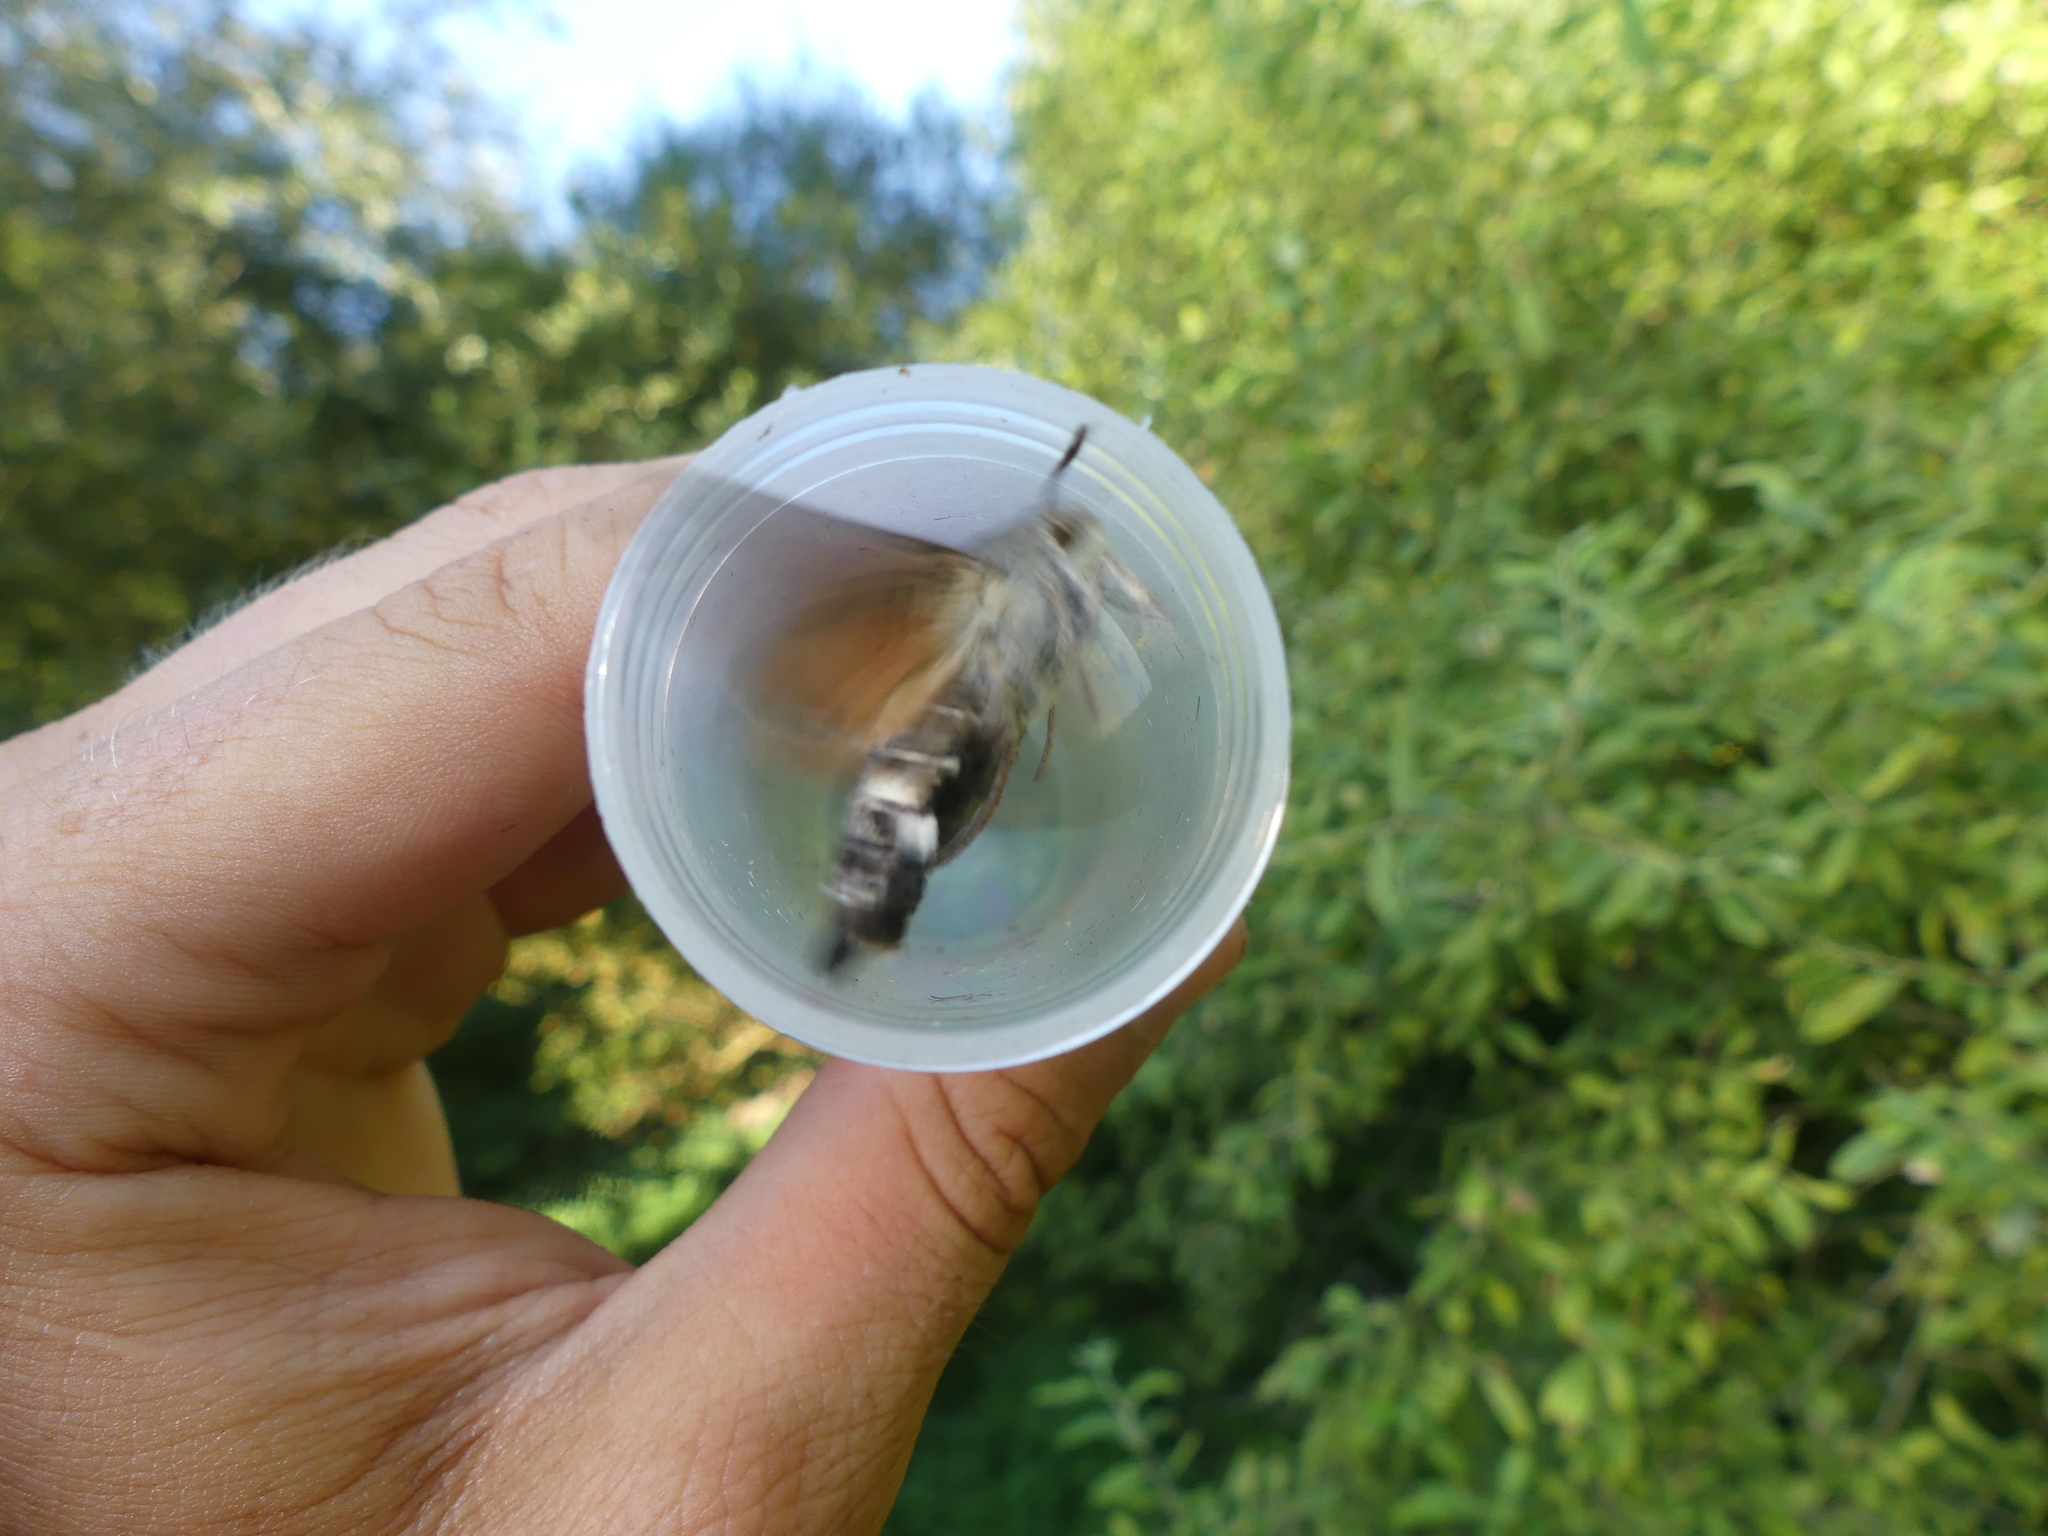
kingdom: Animalia
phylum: Arthropoda
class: Insecta
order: Lepidoptera
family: Sphingidae
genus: Macroglossum
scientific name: Macroglossum stellatarum
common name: Humming-bird hawk-moth
